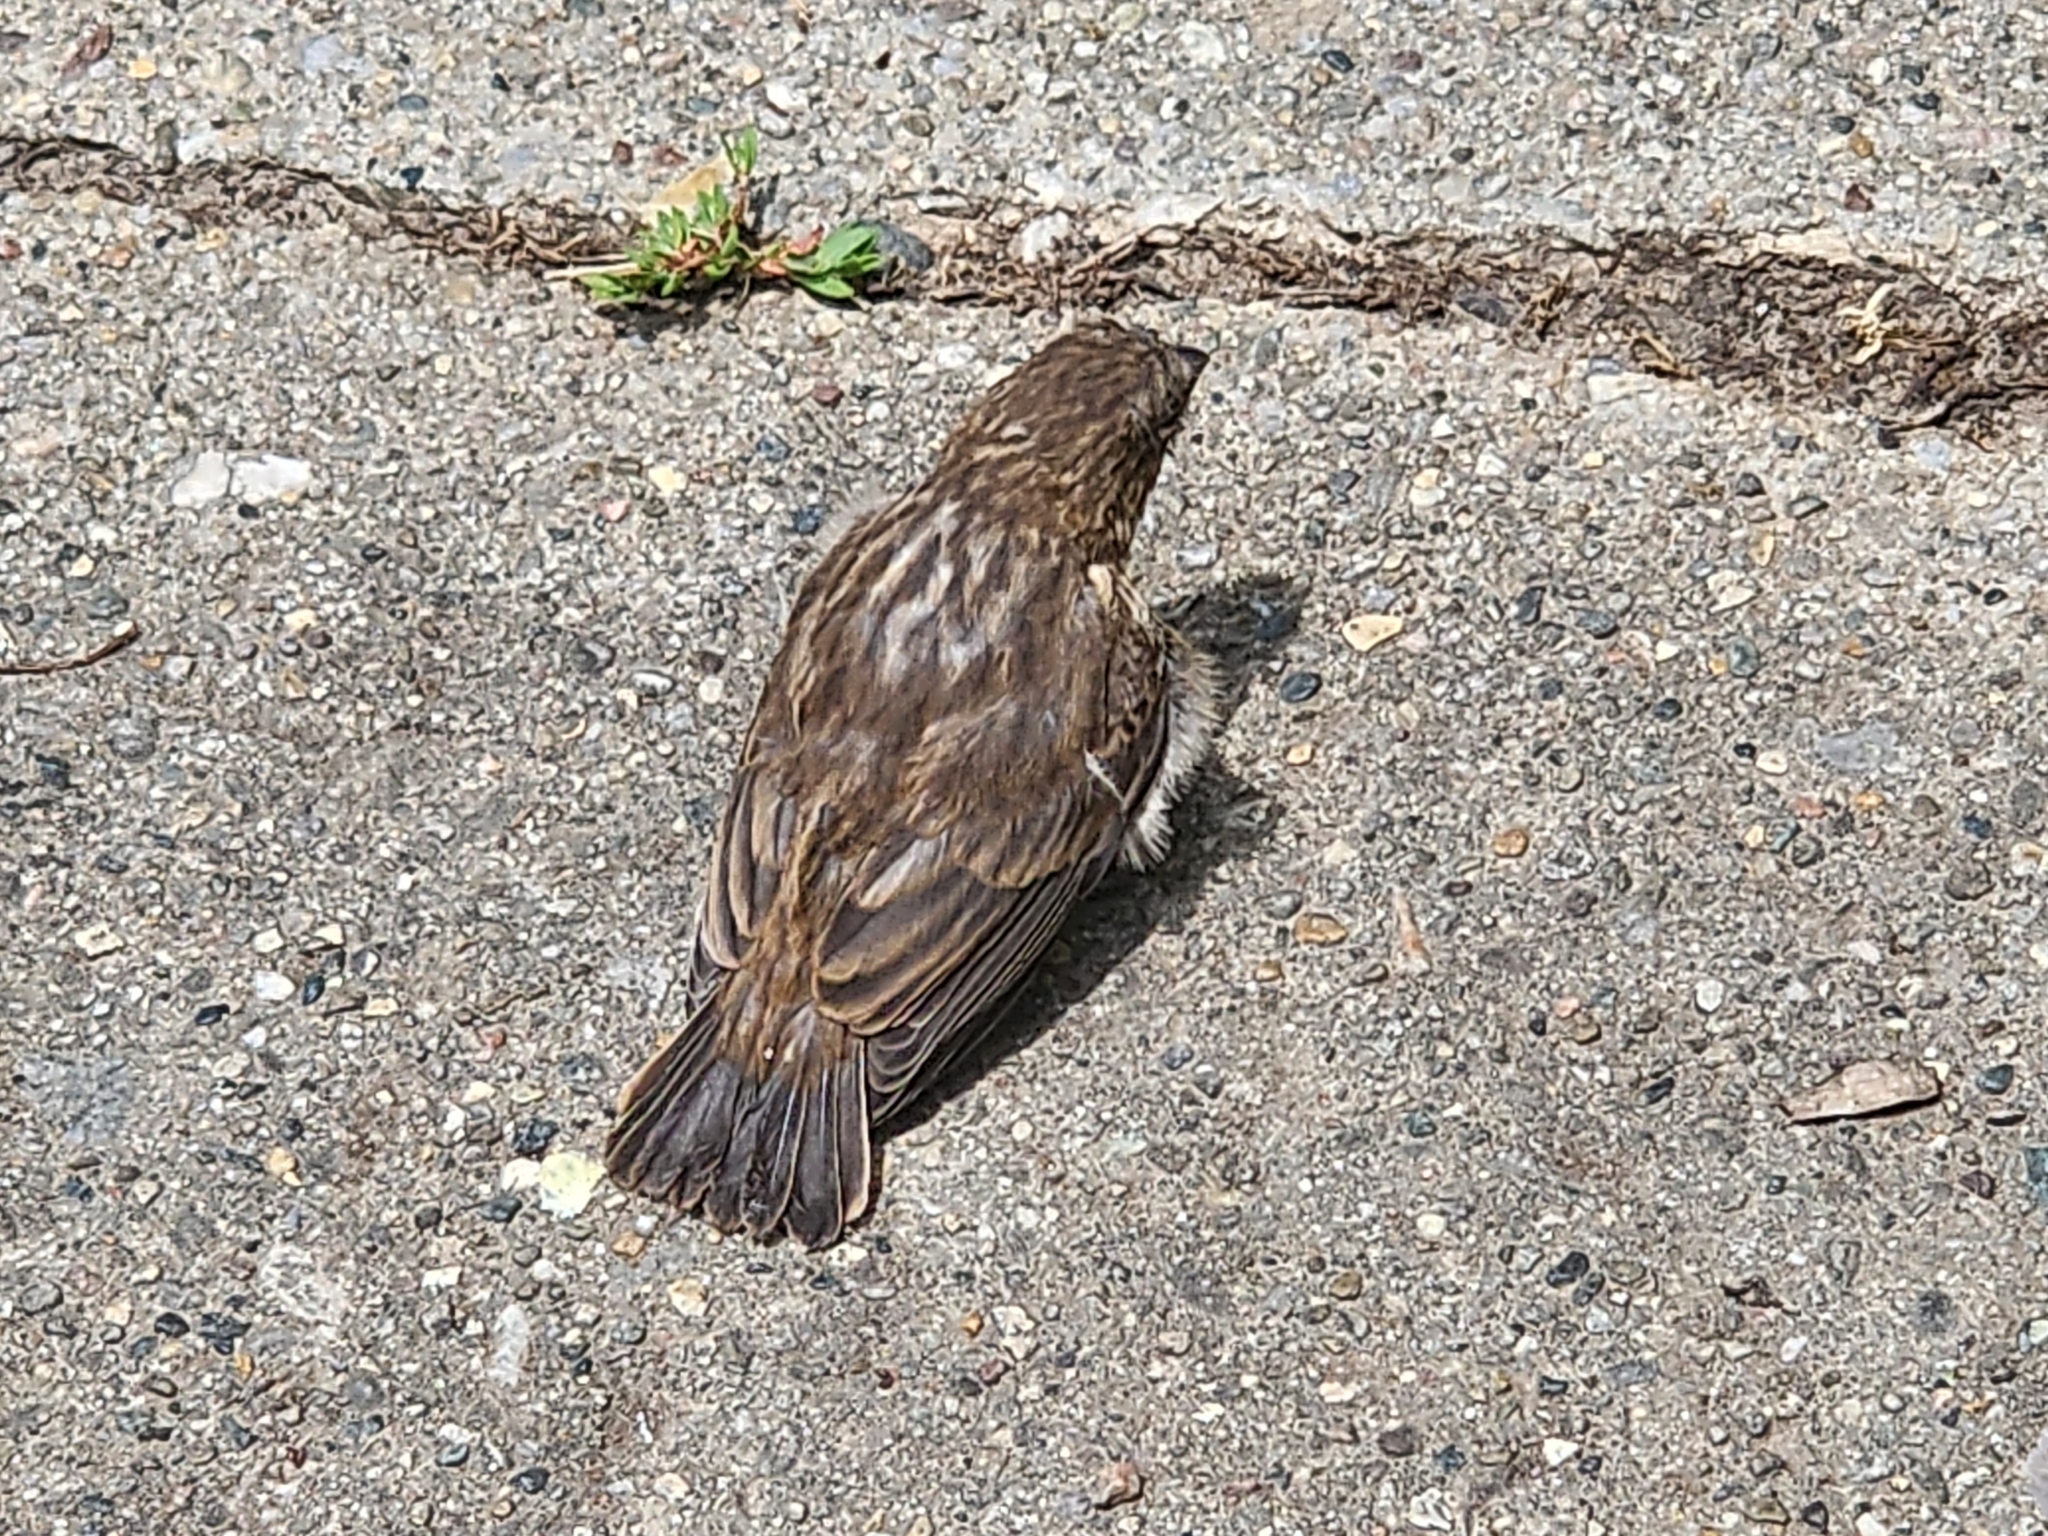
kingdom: Animalia
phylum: Chordata
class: Aves
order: Passeriformes
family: Fringillidae
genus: Haemorhous
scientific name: Haemorhous mexicanus
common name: House finch
